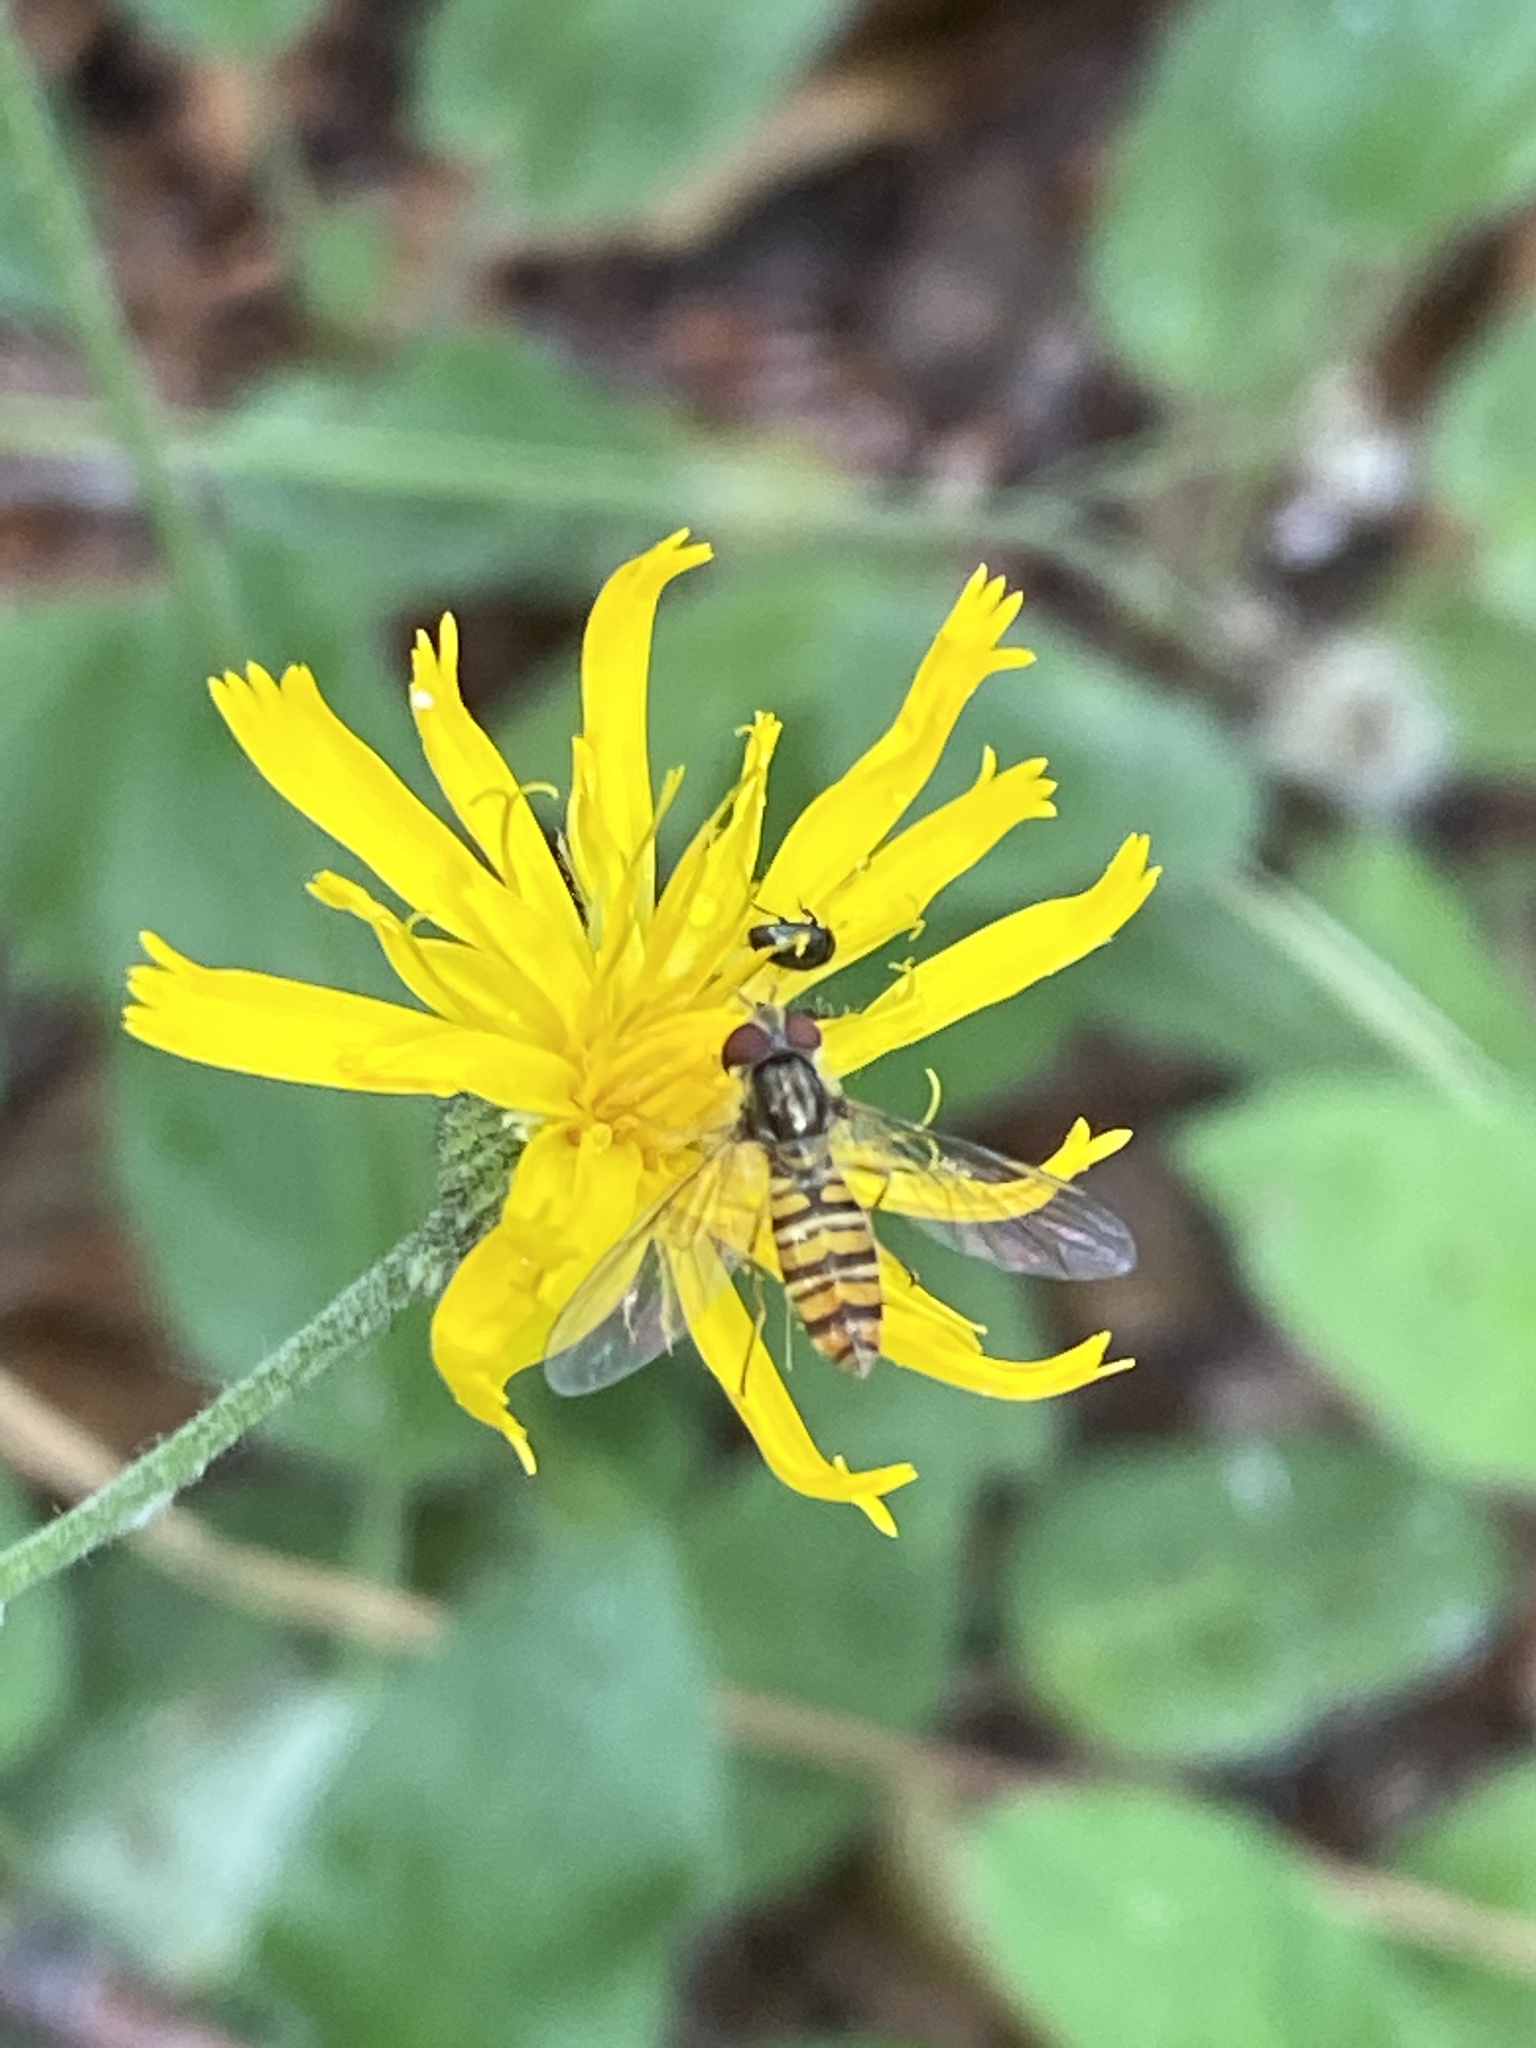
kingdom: Animalia
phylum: Arthropoda
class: Insecta
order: Diptera
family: Syrphidae
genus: Episyrphus
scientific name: Episyrphus balteatus
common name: Marmalade hoverfly
